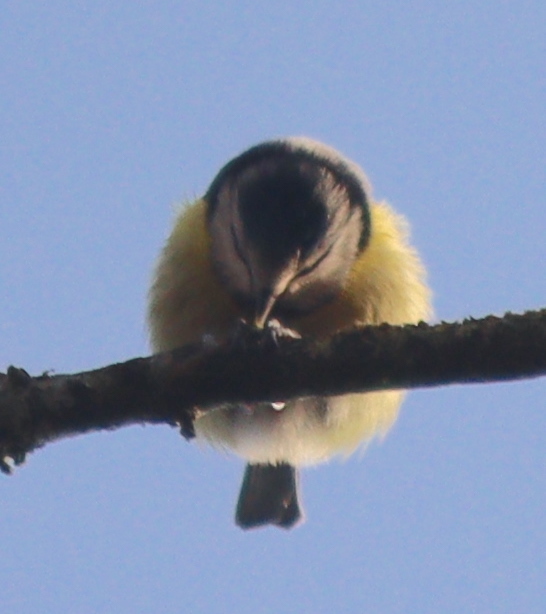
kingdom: Animalia
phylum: Chordata
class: Aves
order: Passeriformes
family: Paridae
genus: Cyanistes
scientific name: Cyanistes caeruleus
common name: Eurasian blue tit
